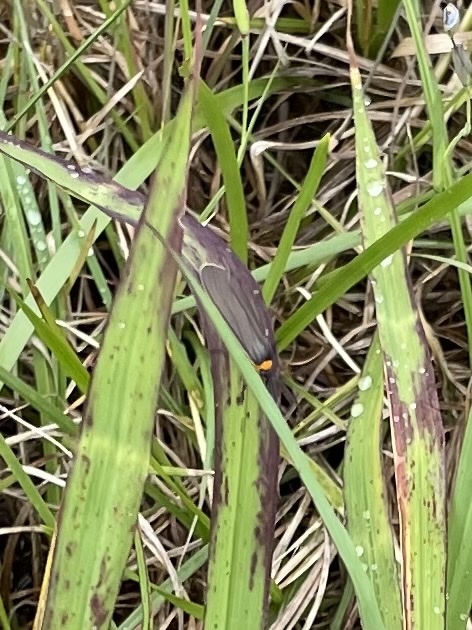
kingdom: Animalia
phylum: Arthropoda
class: Insecta
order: Lepidoptera
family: Erebidae
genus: Cisseps
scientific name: Cisseps fulvicollis
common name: Yellow-collared scape moth
